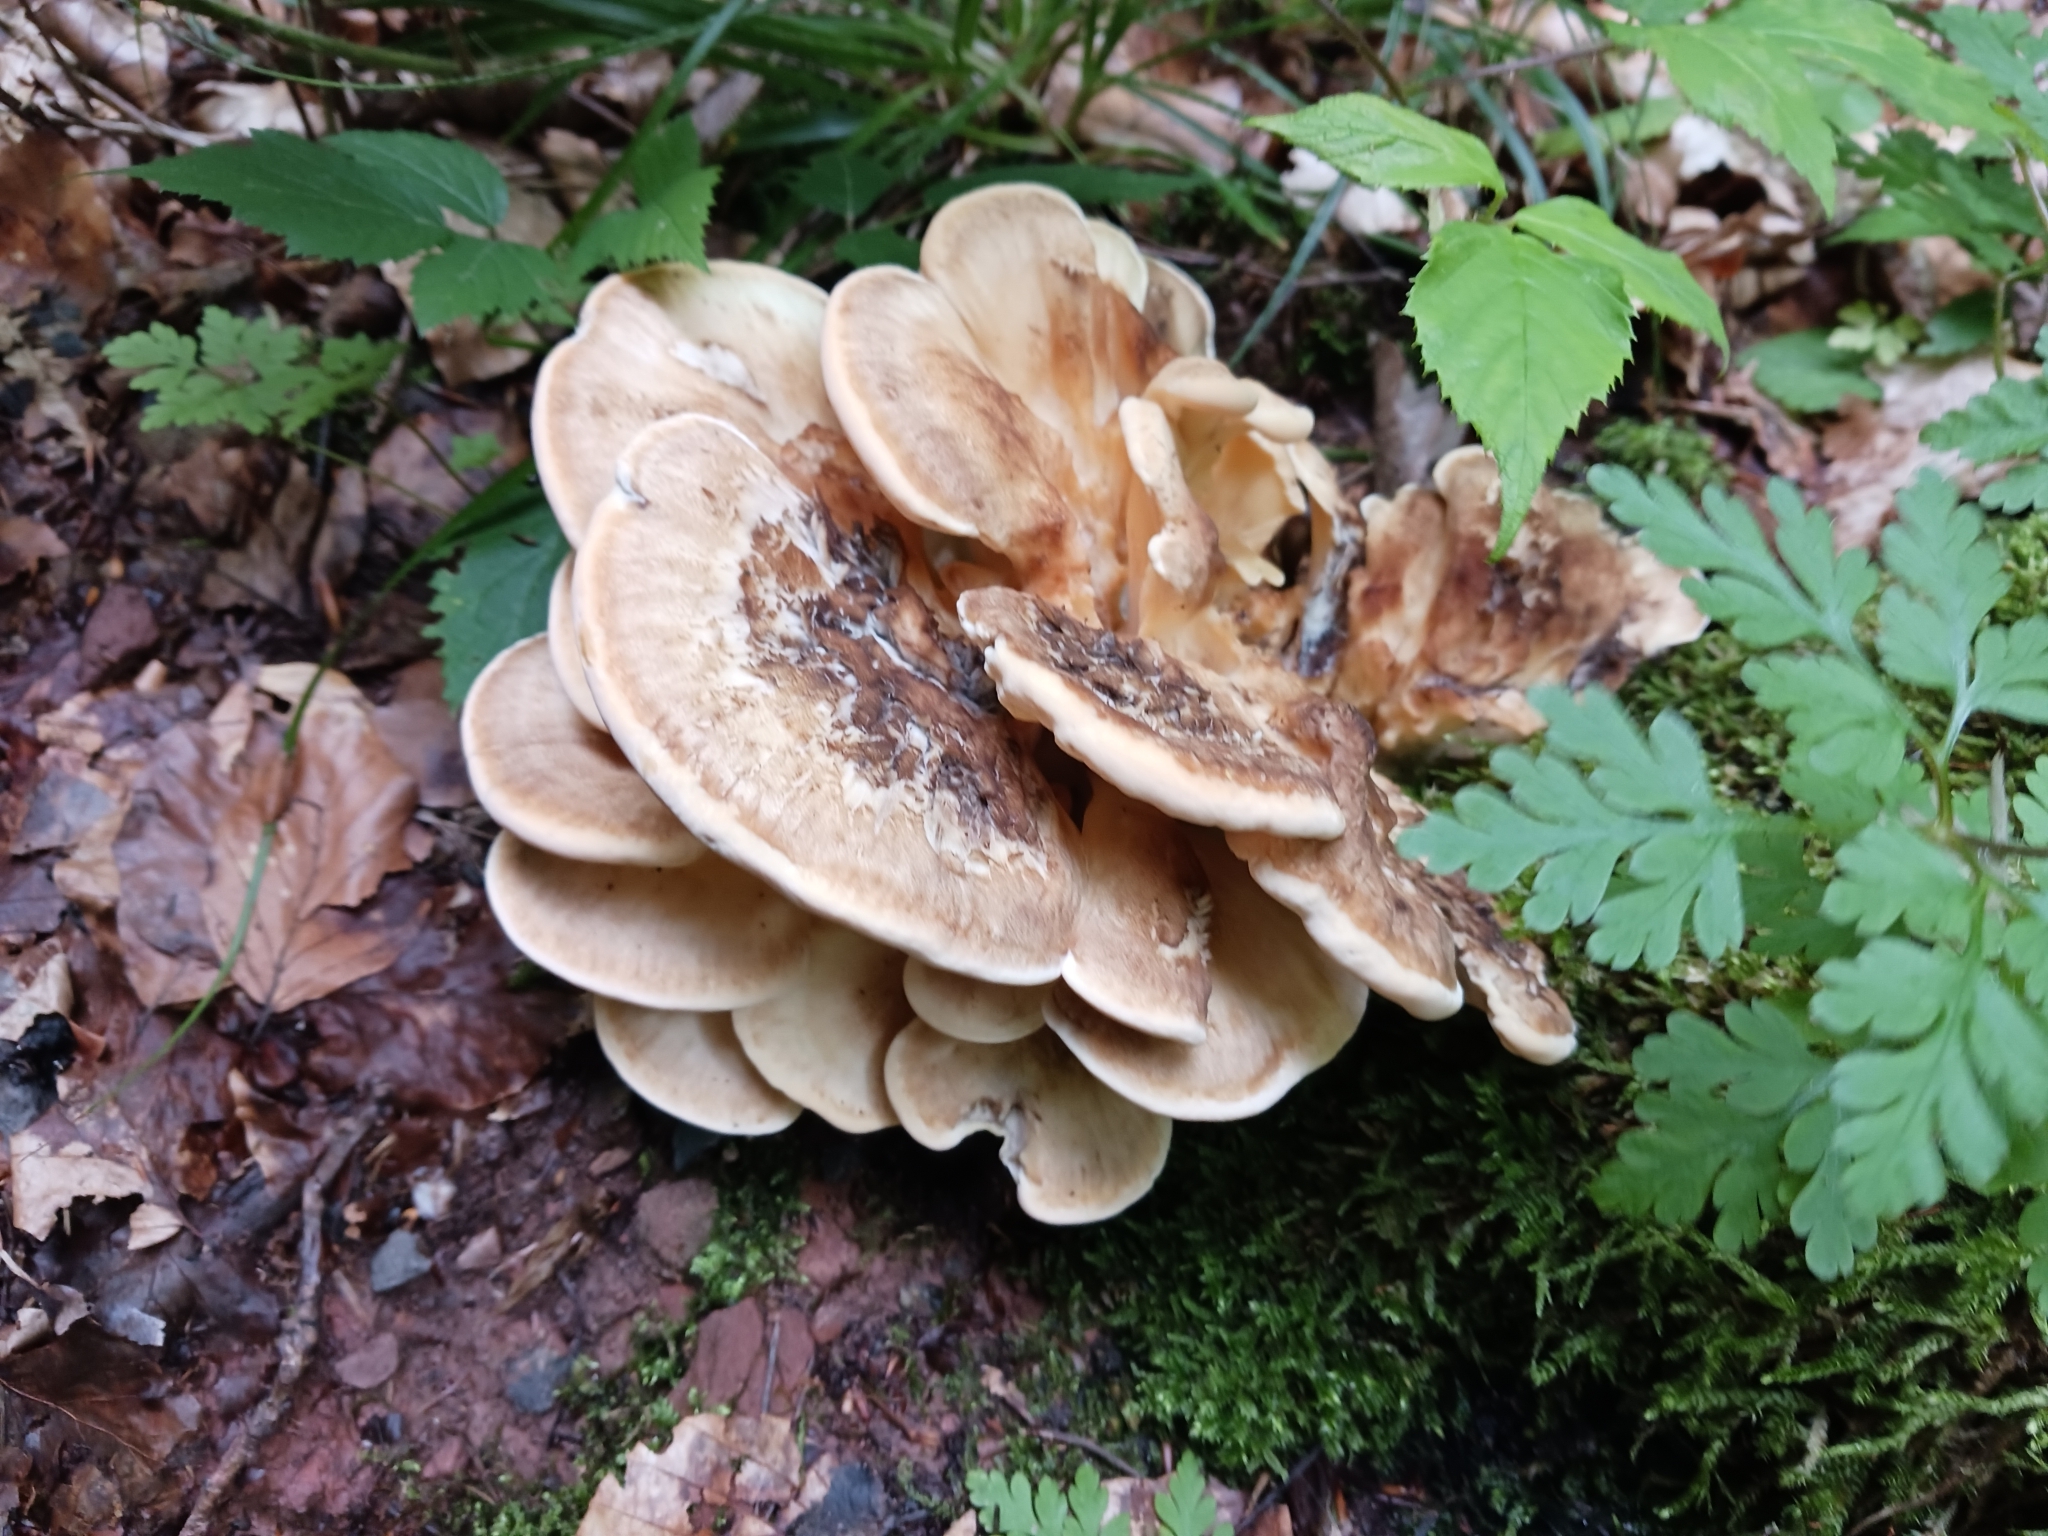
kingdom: Fungi
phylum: Basidiomycota
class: Agaricomycetes
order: Polyporales
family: Meripilaceae
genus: Meripilus
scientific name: Meripilus giganteus
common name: Giant polypore
